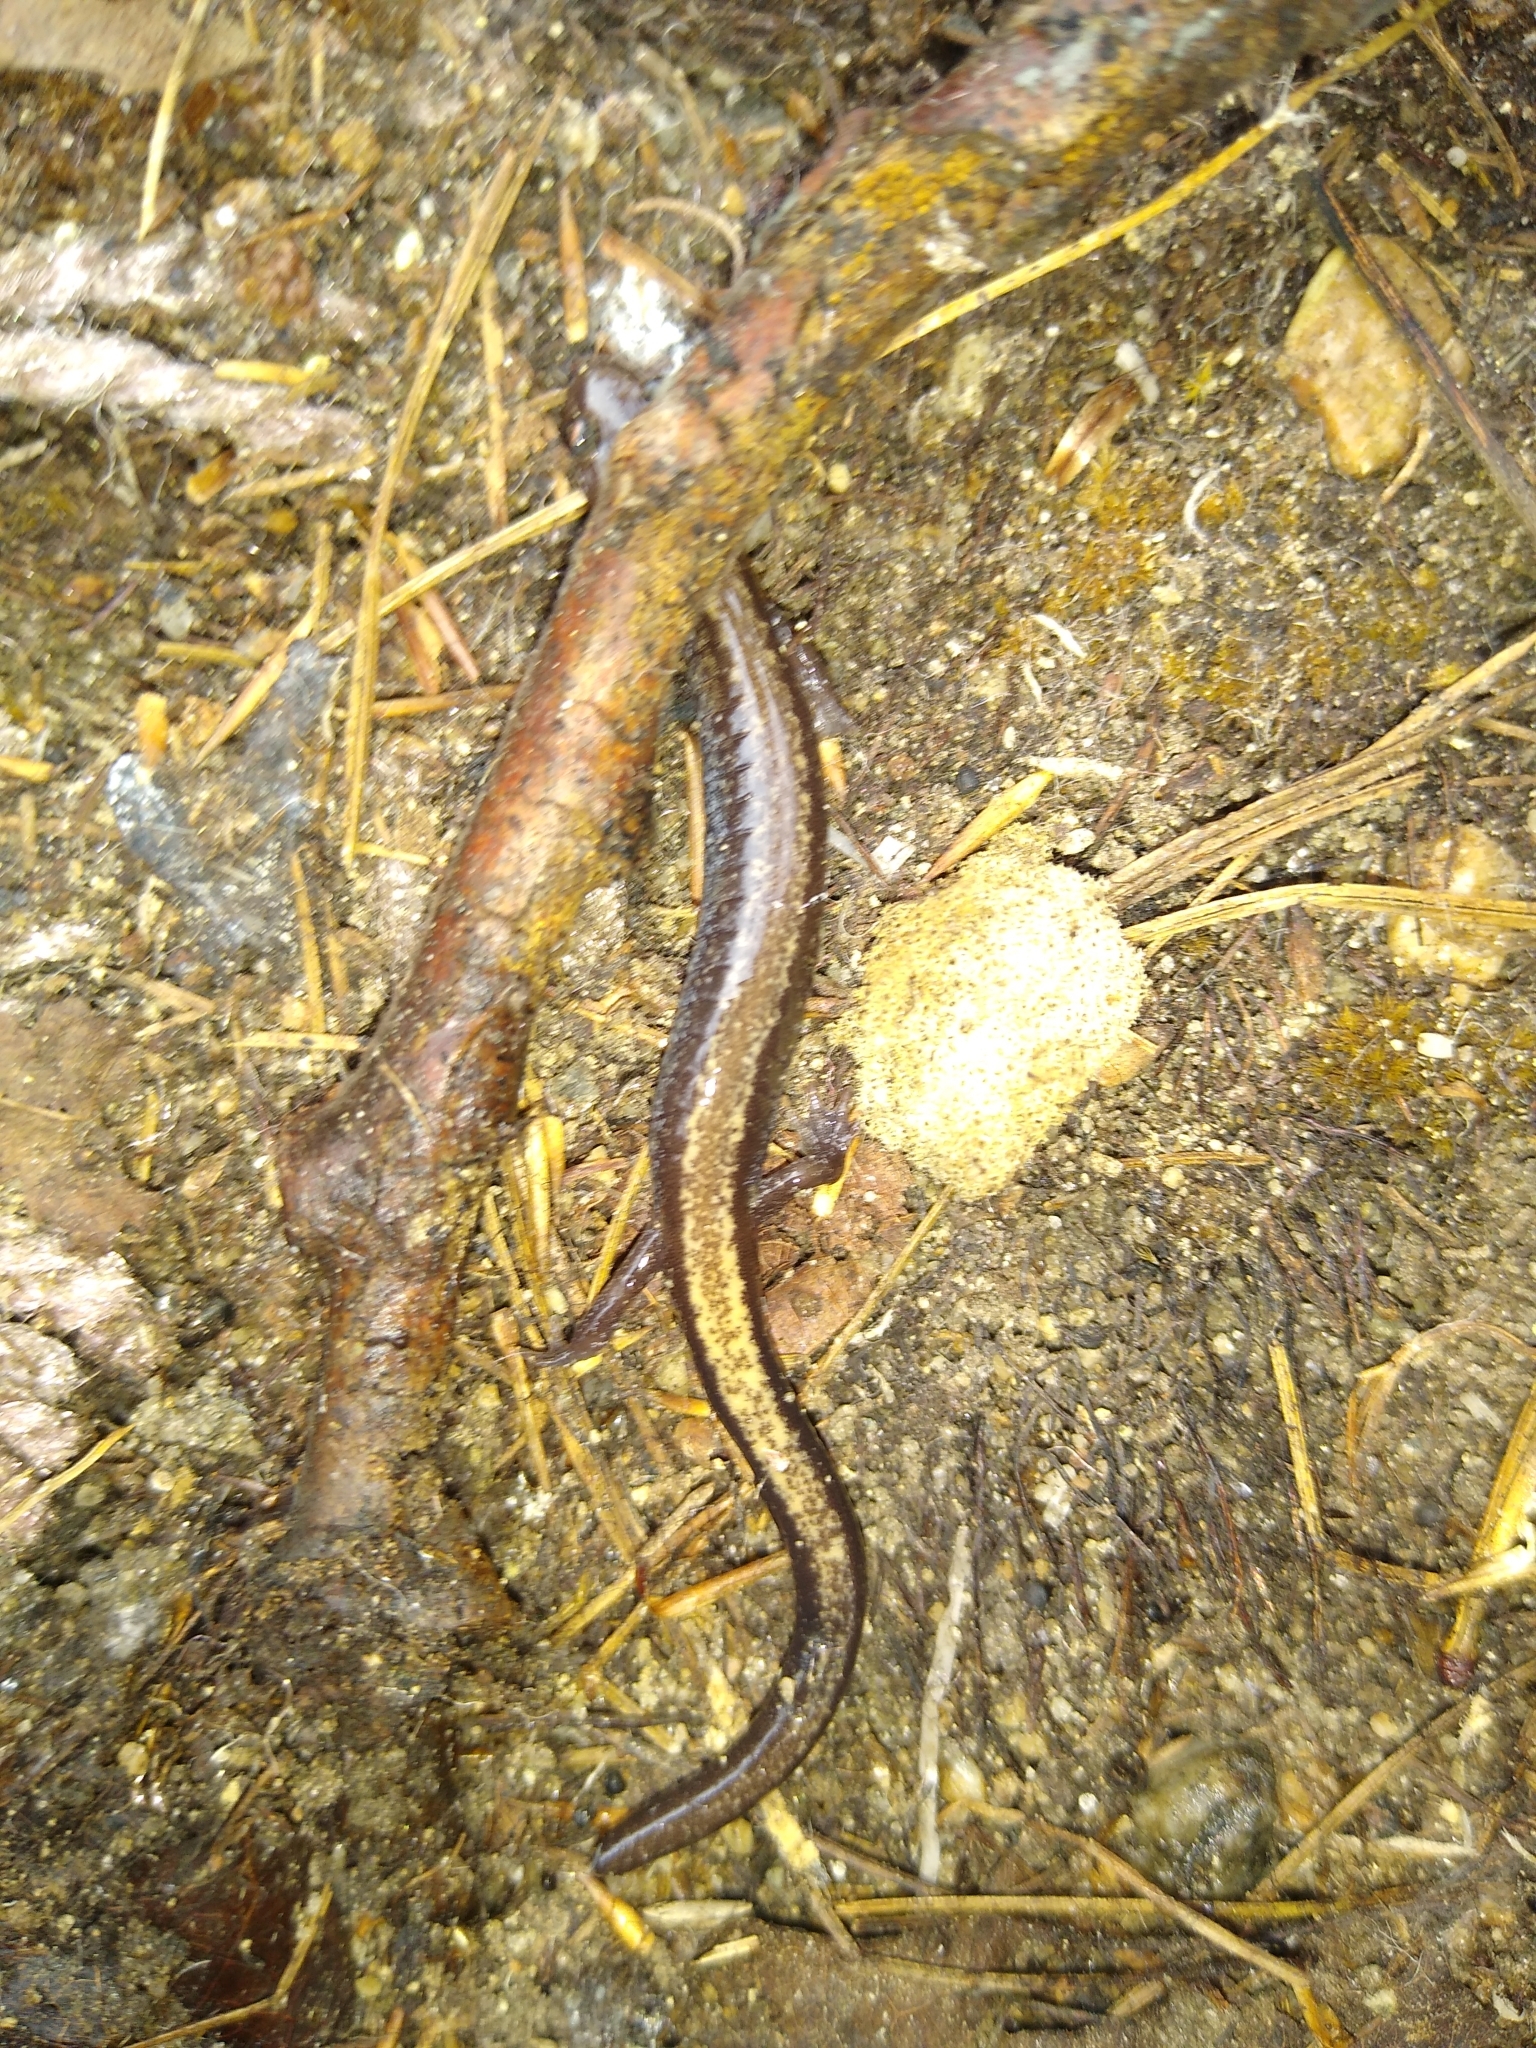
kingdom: Animalia
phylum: Chordata
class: Amphibia
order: Caudata
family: Plethodontidae
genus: Plethodon
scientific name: Plethodon cinereus
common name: Redback salamander
